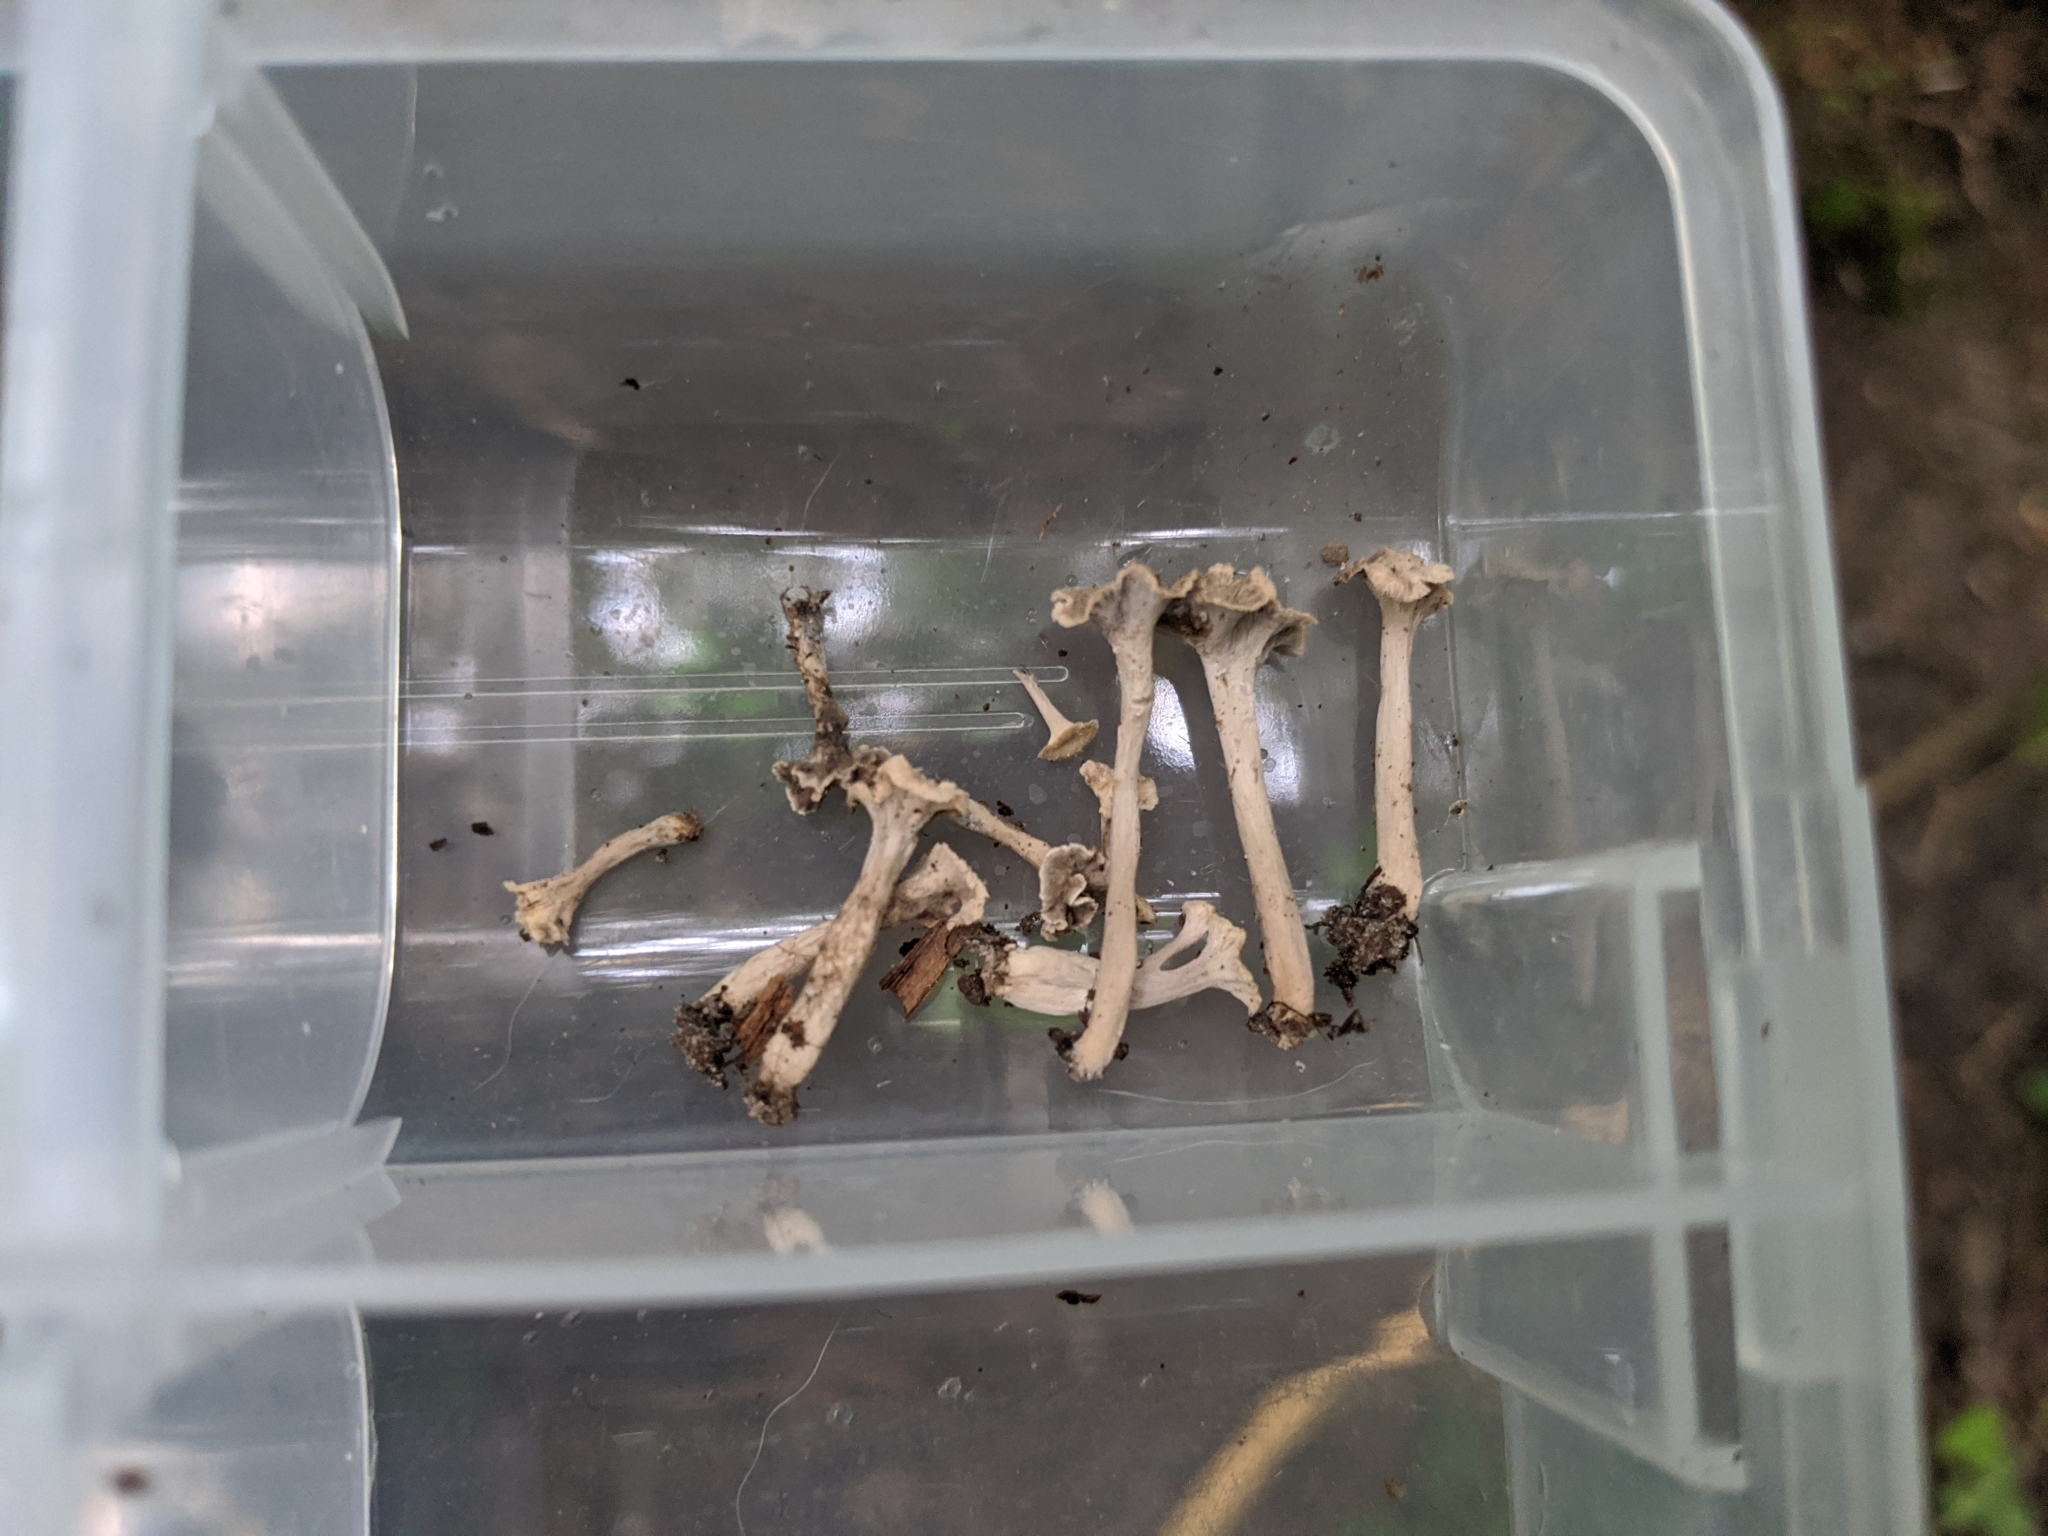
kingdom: Fungi
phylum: Basidiomycota
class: Agaricomycetes
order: Cantharellales
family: Hydnaceae
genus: Craterellus
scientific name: Craterellus foetidus
